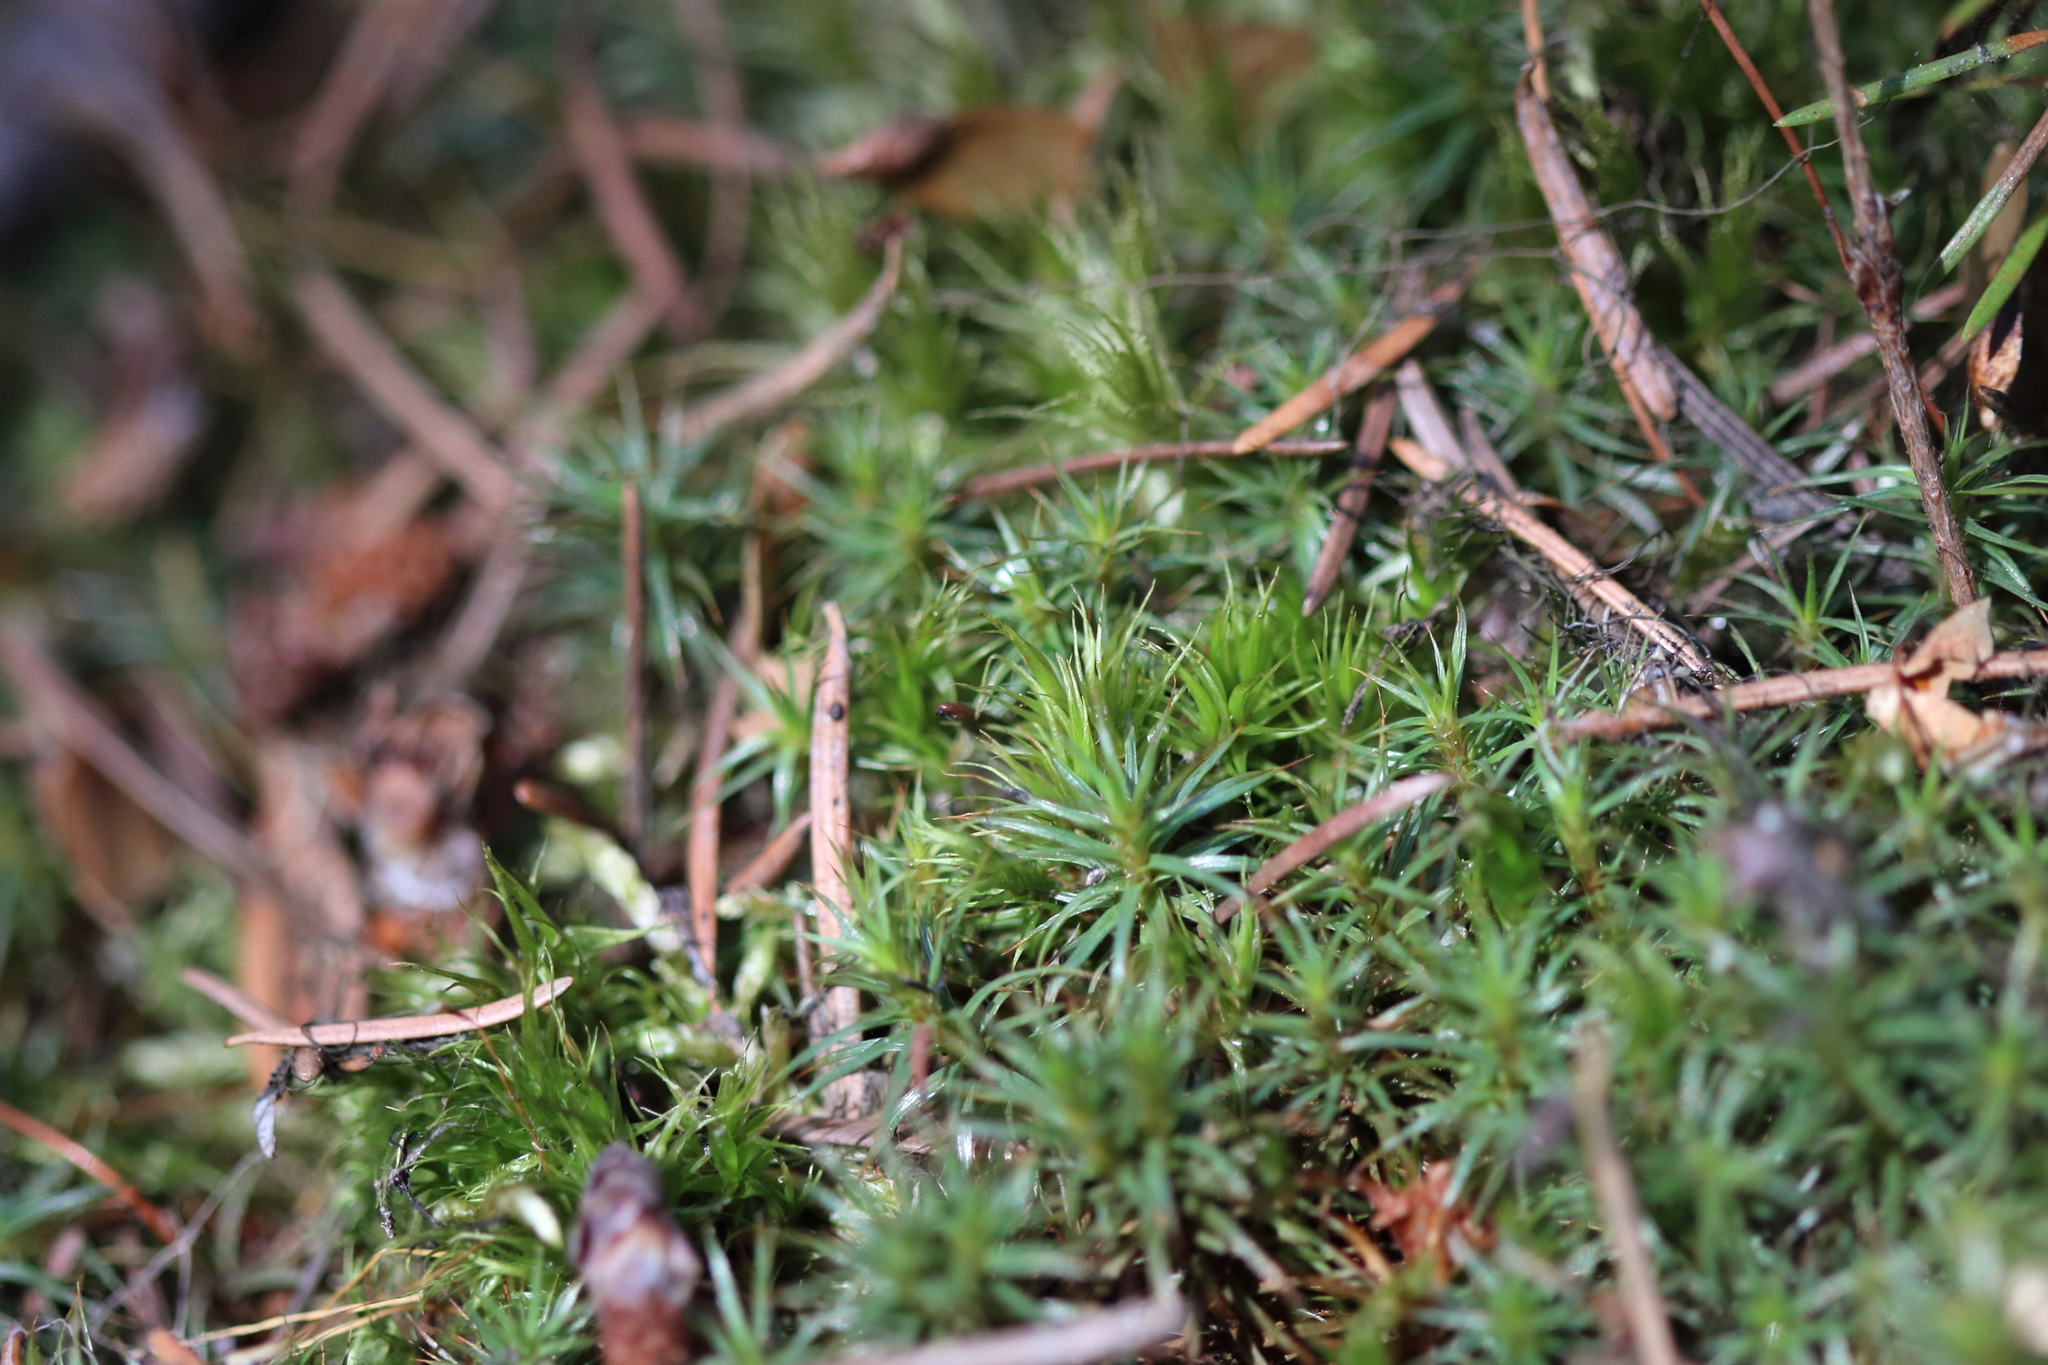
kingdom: Plantae
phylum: Bryophyta
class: Polytrichopsida
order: Polytrichales
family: Polytrichaceae
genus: Polytrichum
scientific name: Polytrichum juniperinum
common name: Juniper haircap moss
